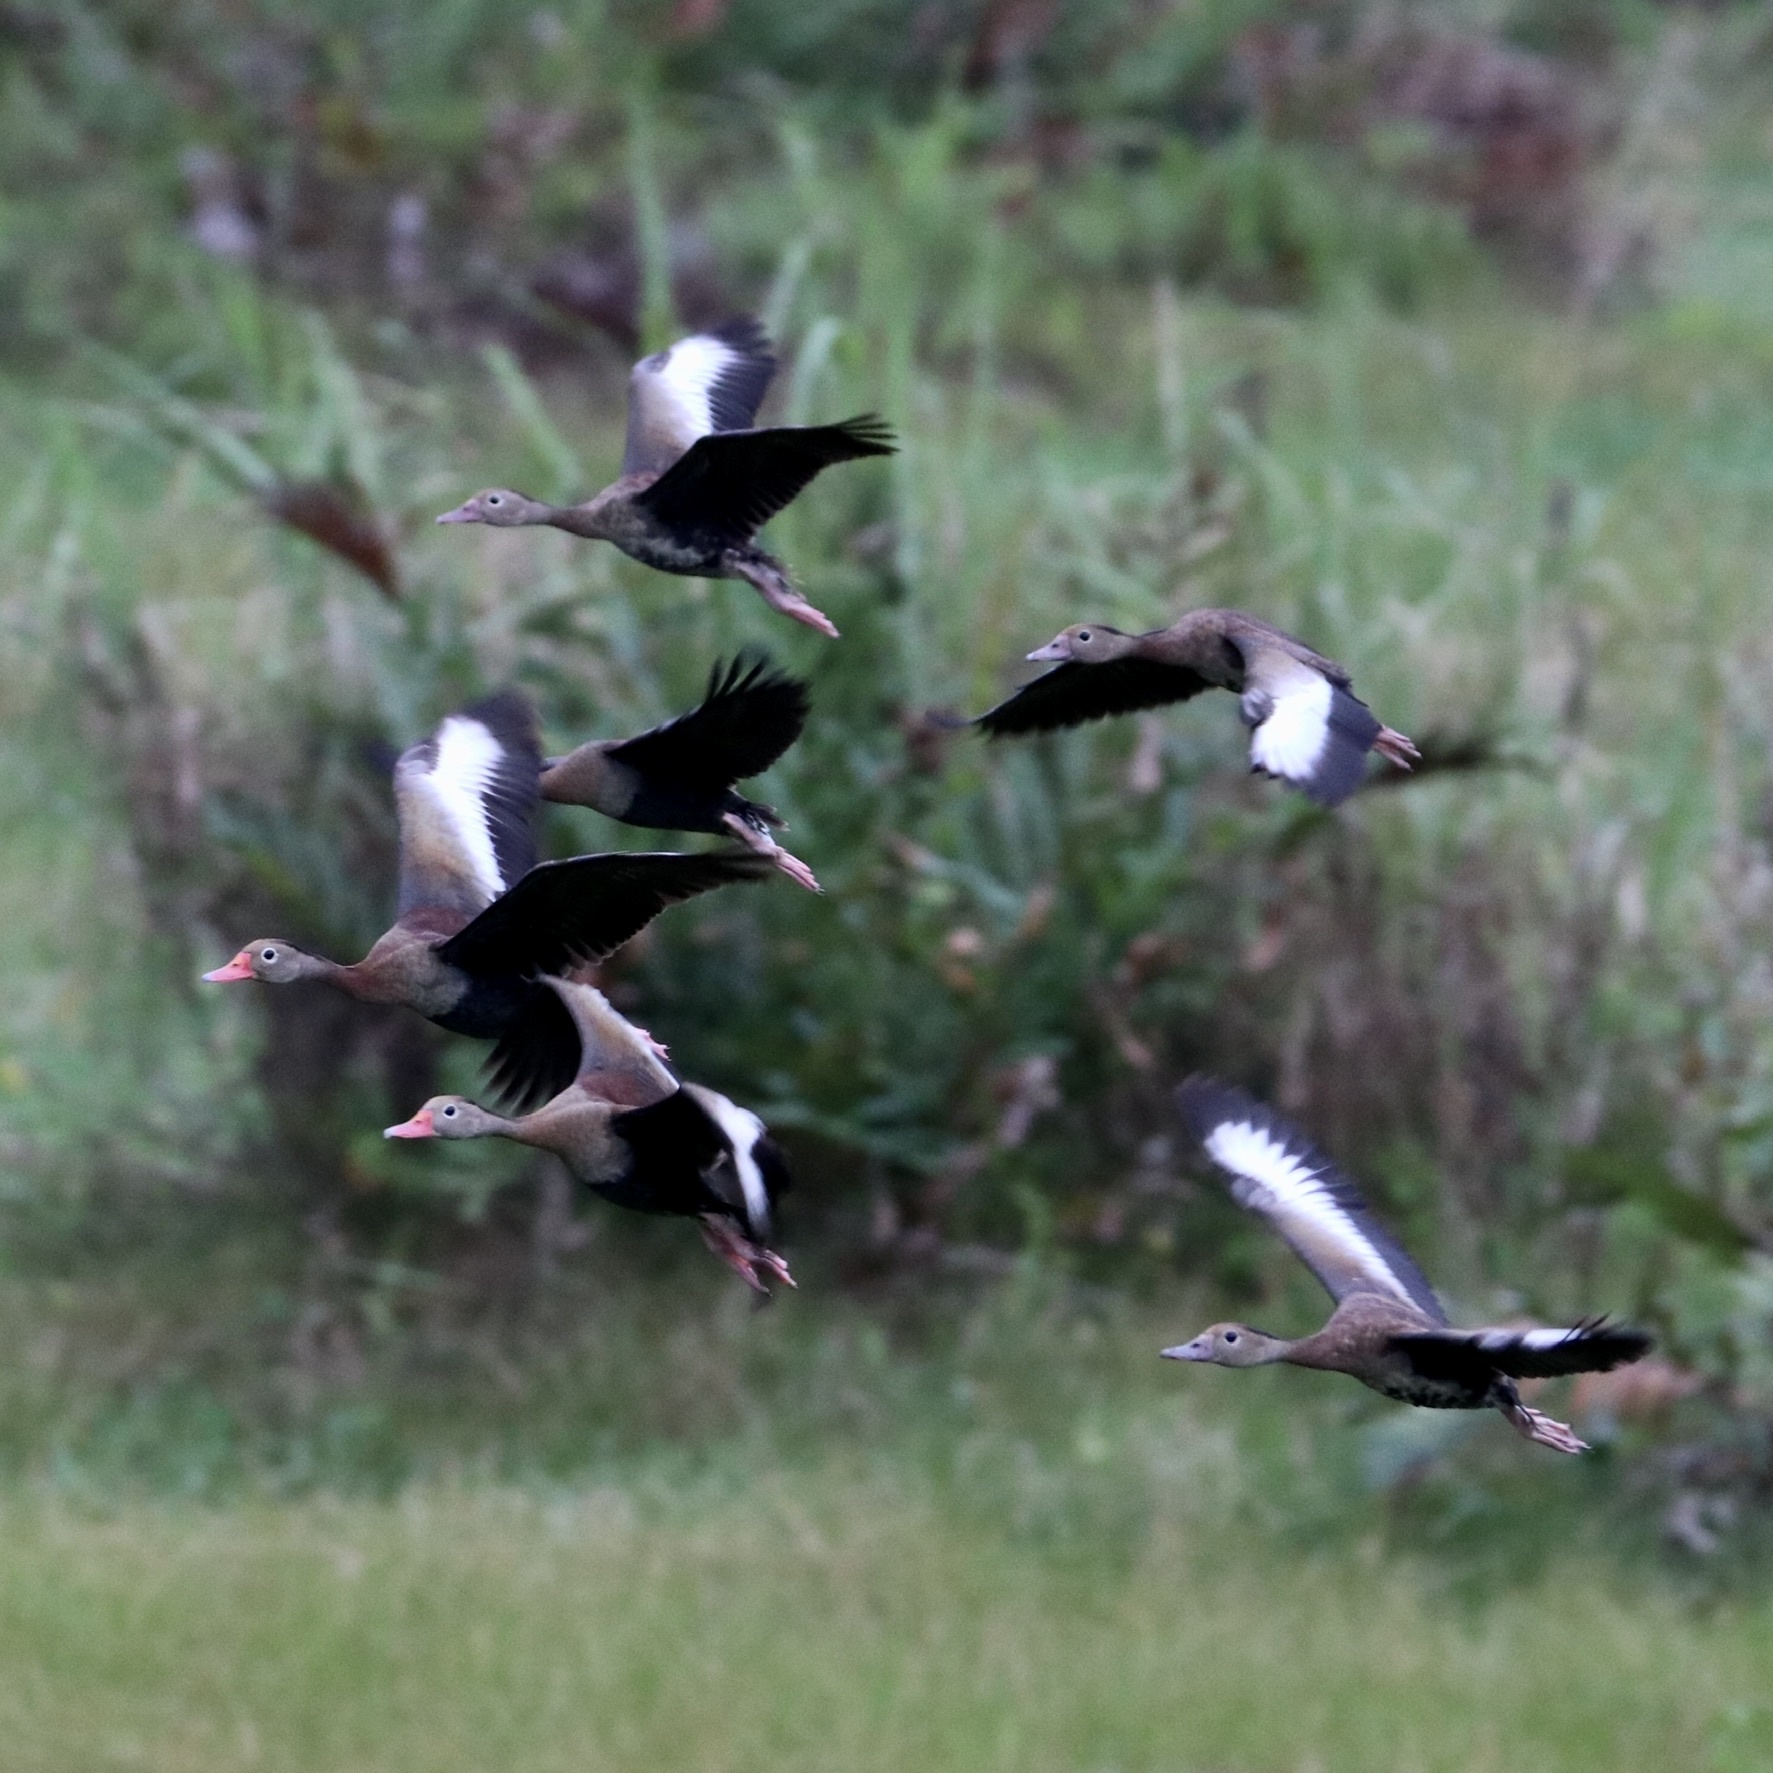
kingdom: Animalia
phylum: Chordata
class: Aves
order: Anseriformes
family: Anatidae
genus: Dendrocygna
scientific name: Dendrocygna autumnalis
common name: Black-bellied whistling duck
